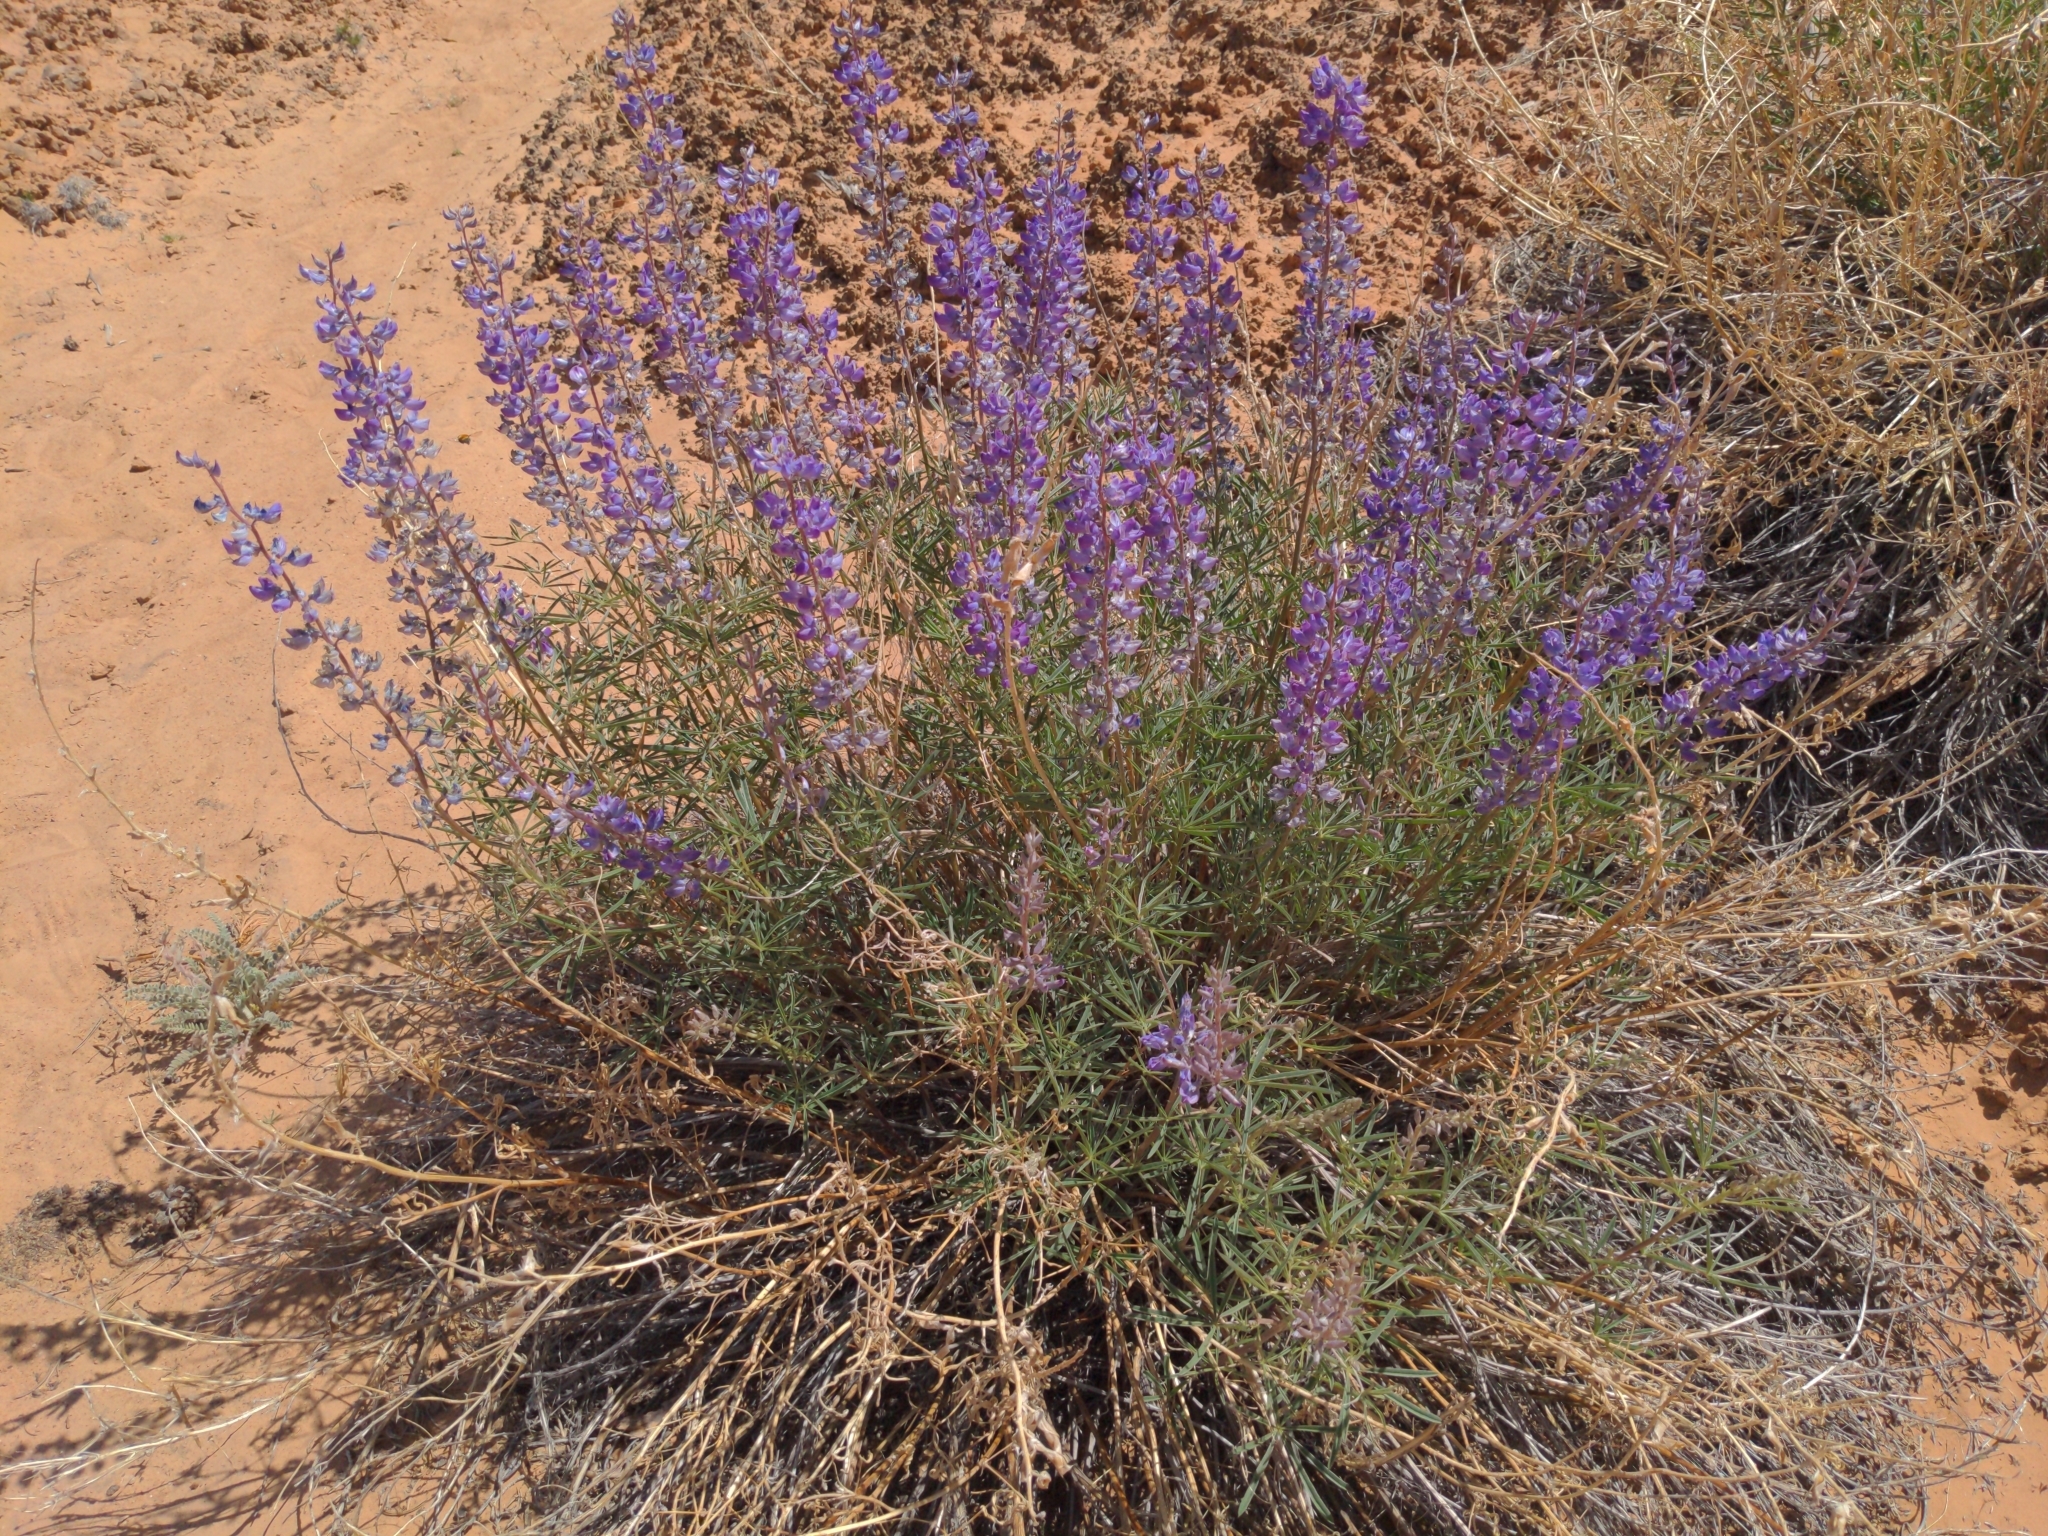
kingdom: Plantae
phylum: Tracheophyta
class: Magnoliopsida
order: Fabales
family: Fabaceae
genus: Lupinus
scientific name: Lupinus argenteus
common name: Silvery lupine
